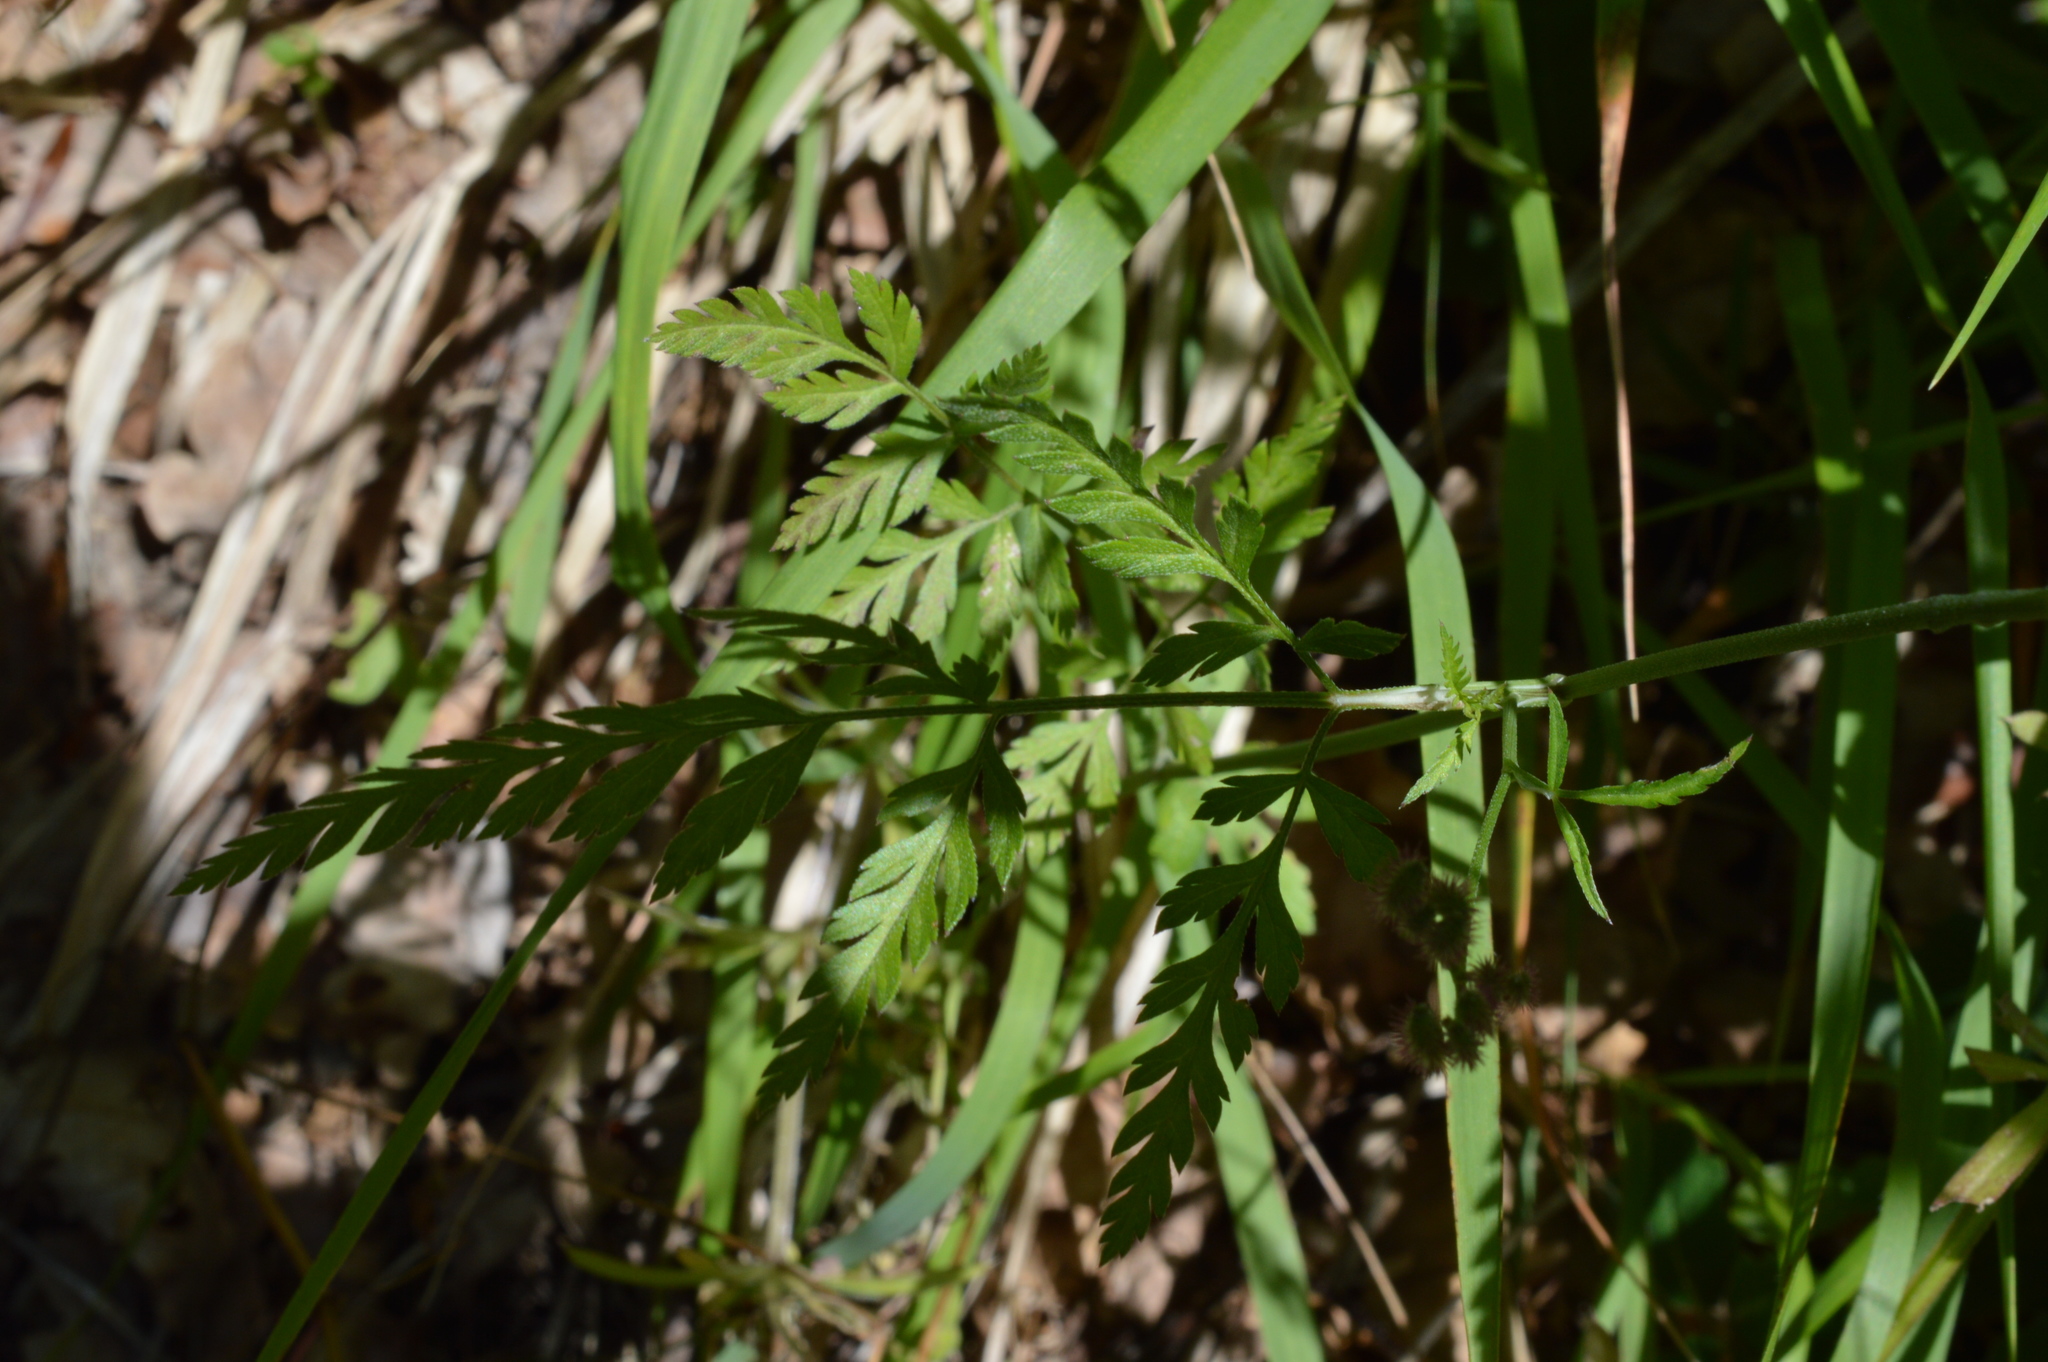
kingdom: Plantae
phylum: Tracheophyta
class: Magnoliopsida
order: Apiales
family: Apiaceae
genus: Torilis
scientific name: Torilis arvensis
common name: Spreading hedge-parsley
